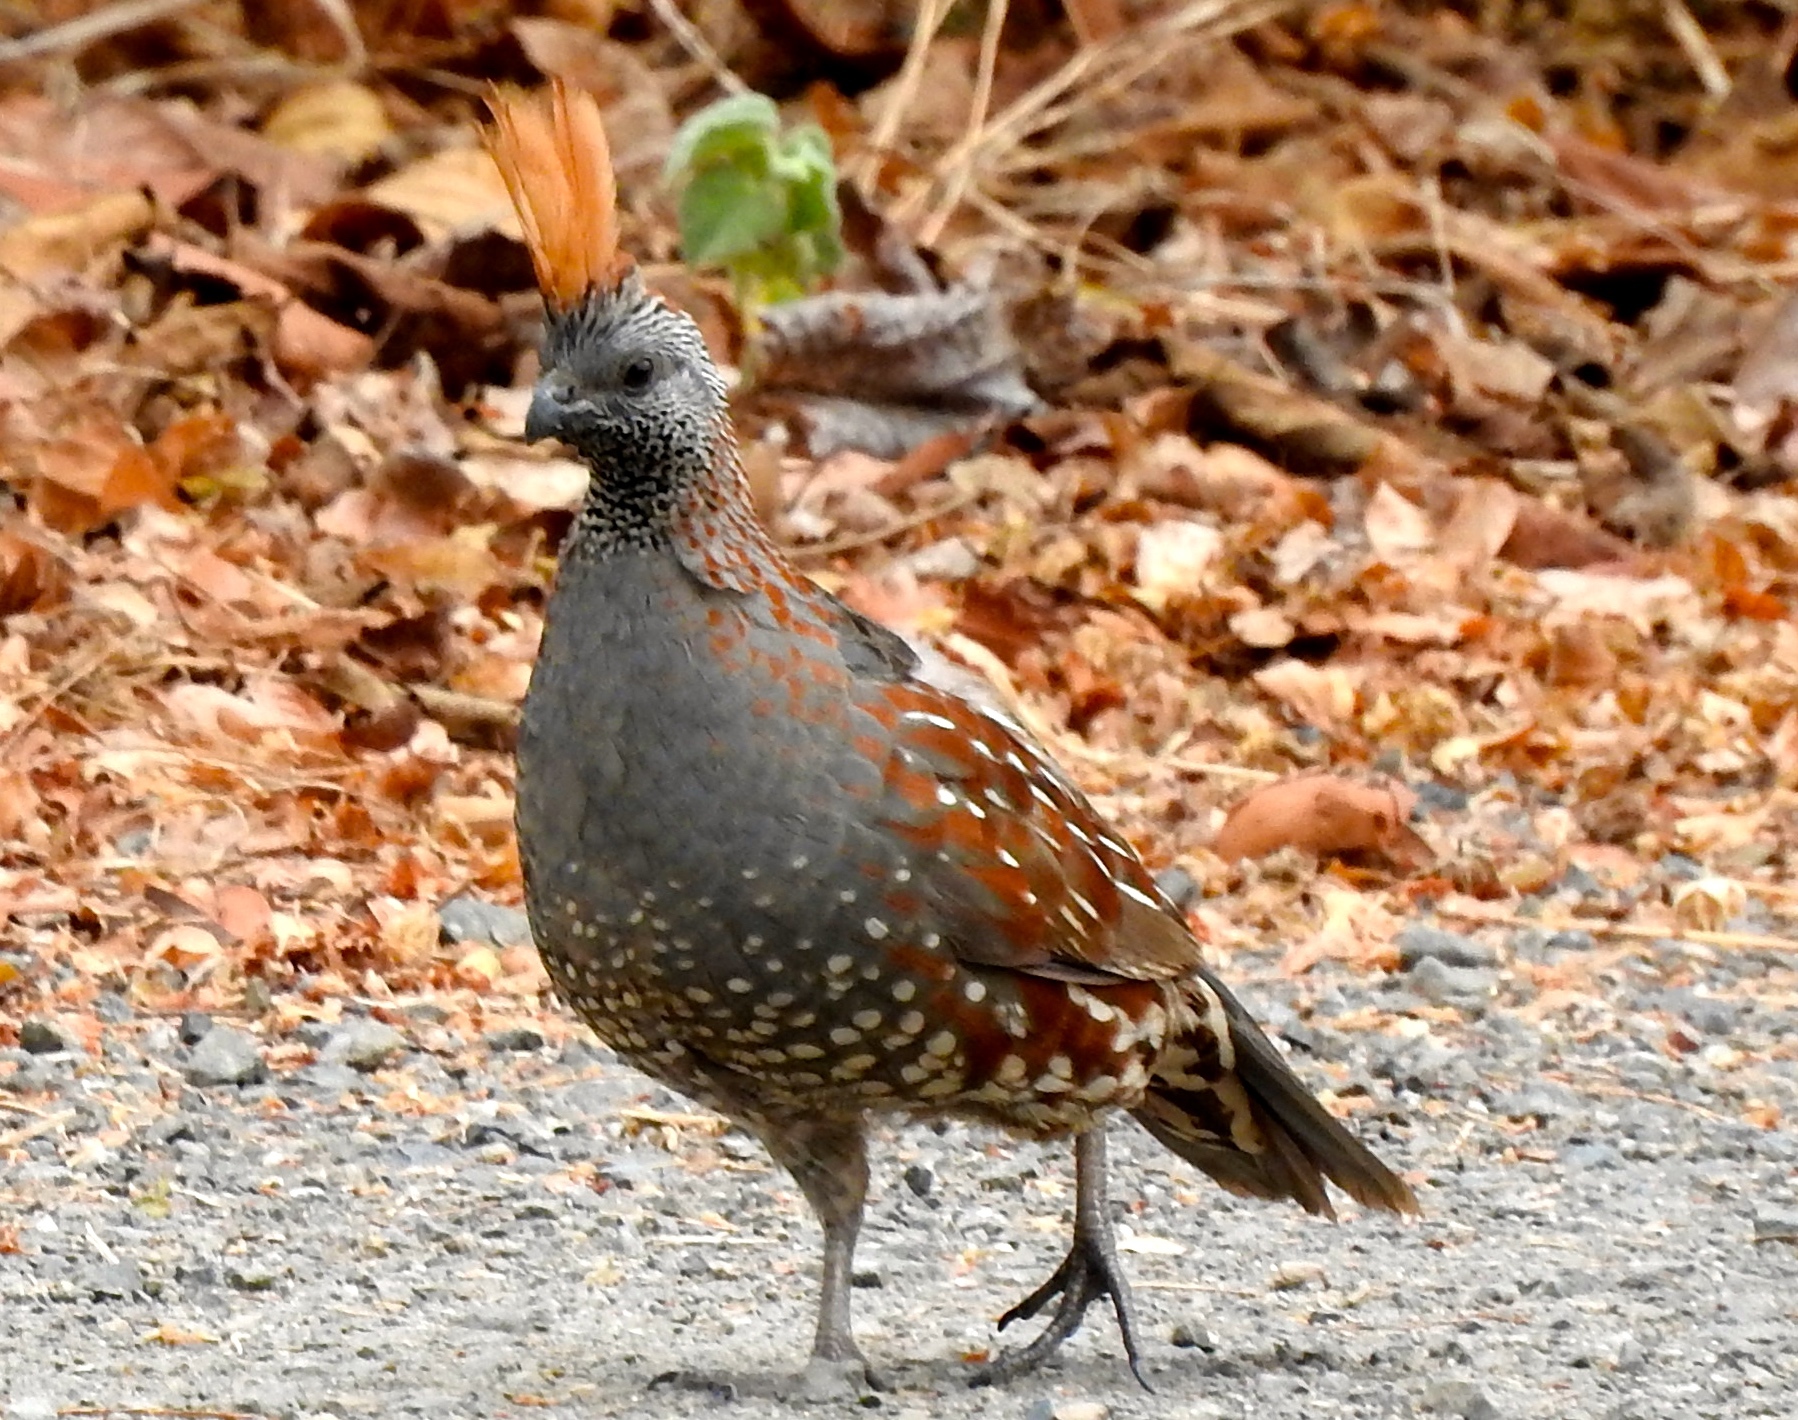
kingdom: Animalia
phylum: Chordata
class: Aves
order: Galliformes
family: Odontophoridae
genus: Callipepla
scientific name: Callipepla douglasii
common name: Elegant quail
